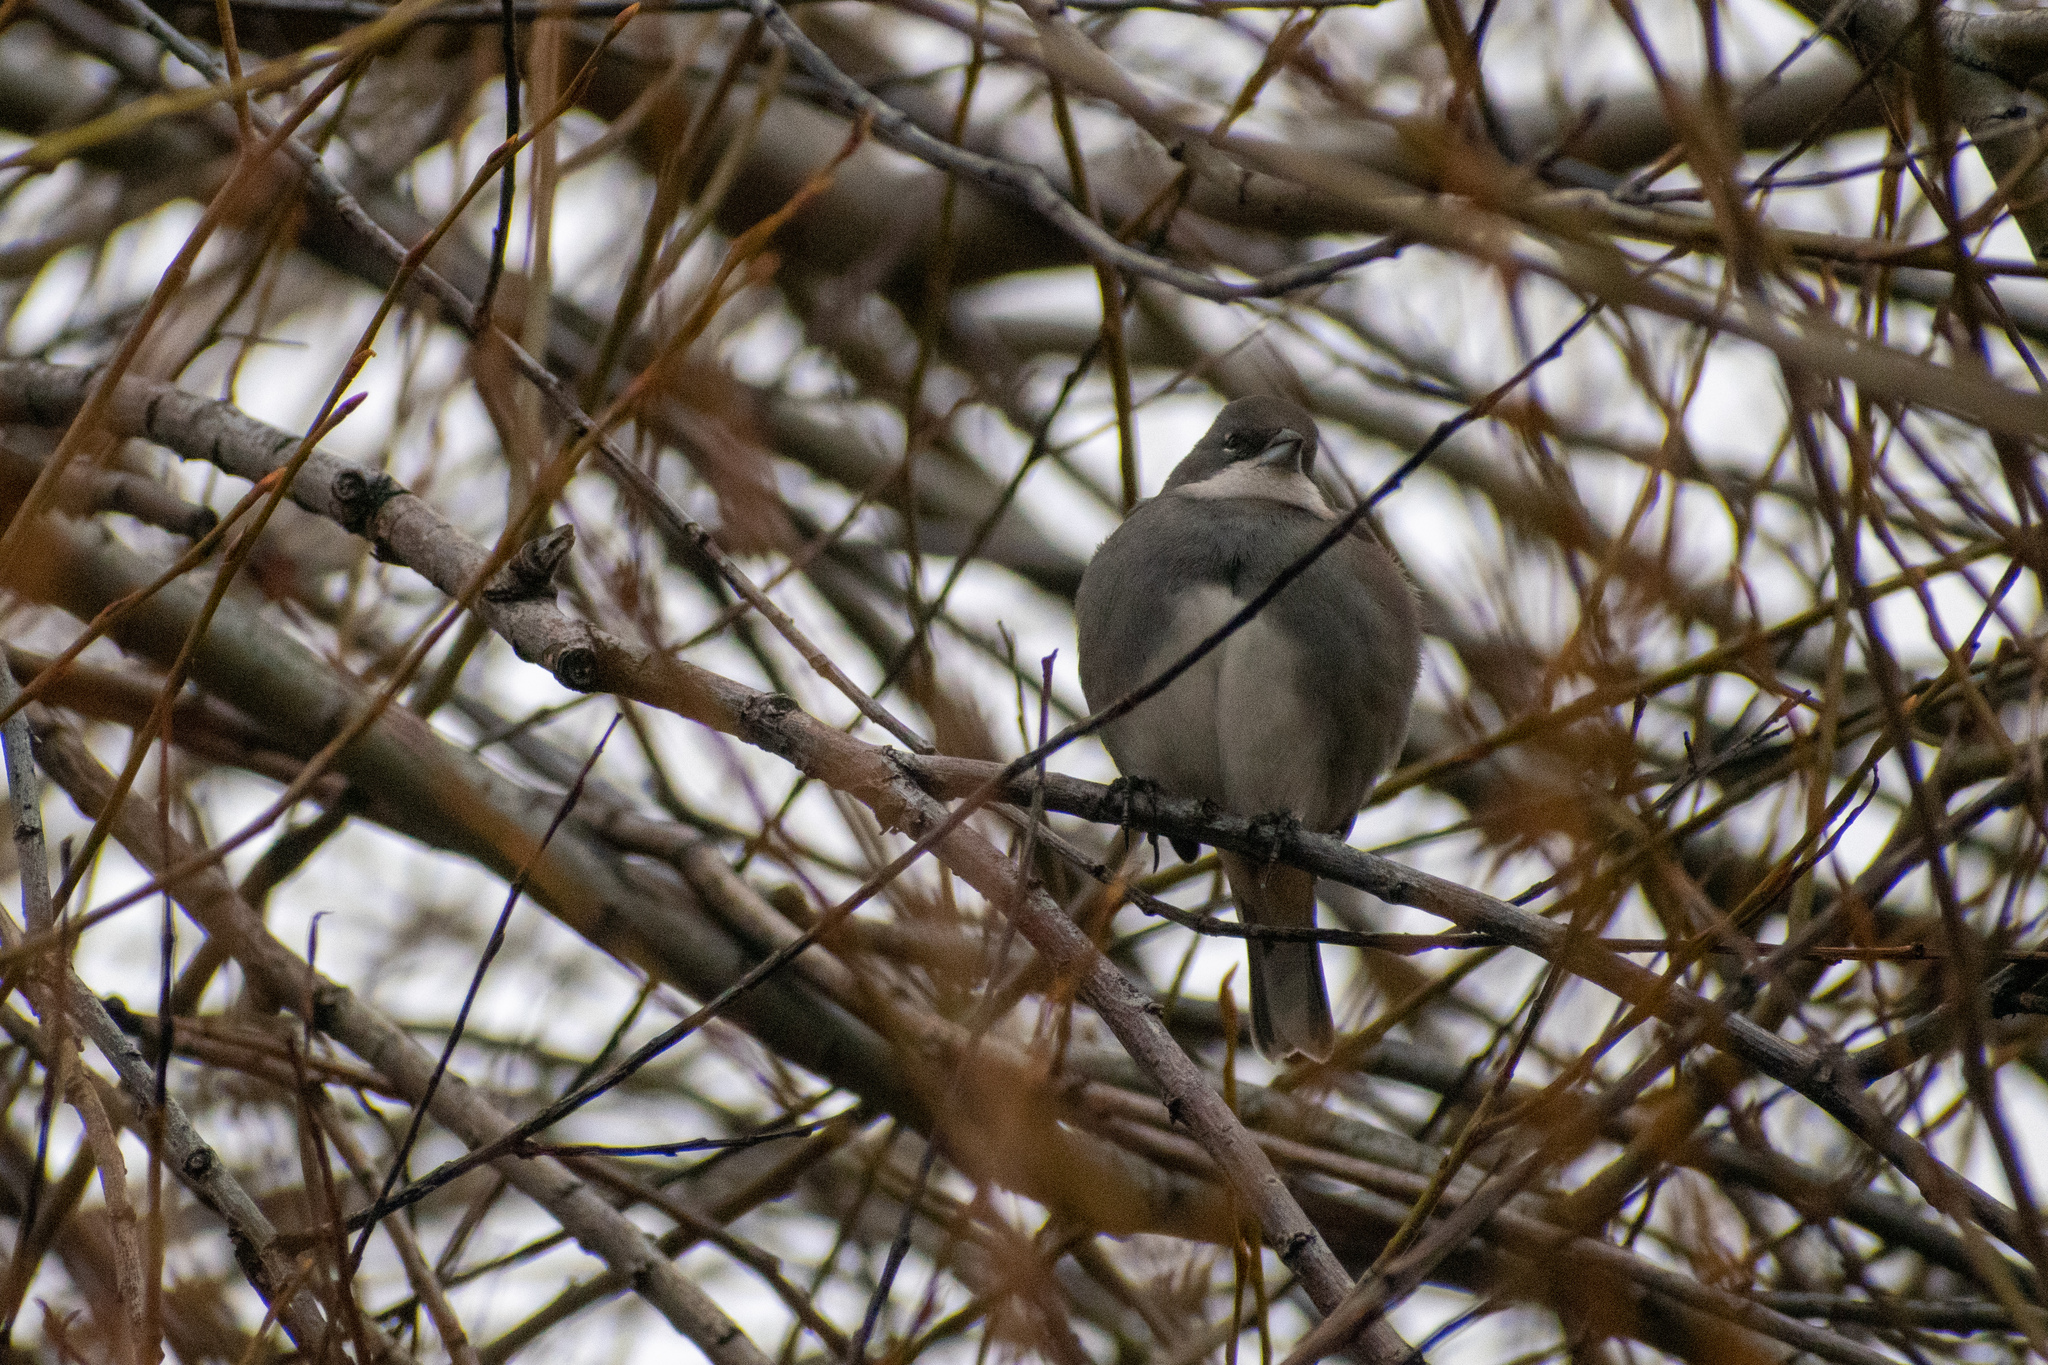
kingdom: Animalia
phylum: Chordata
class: Aves
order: Passeriformes
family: Thraupidae
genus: Diuca
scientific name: Diuca diuca
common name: Common diuca finch
